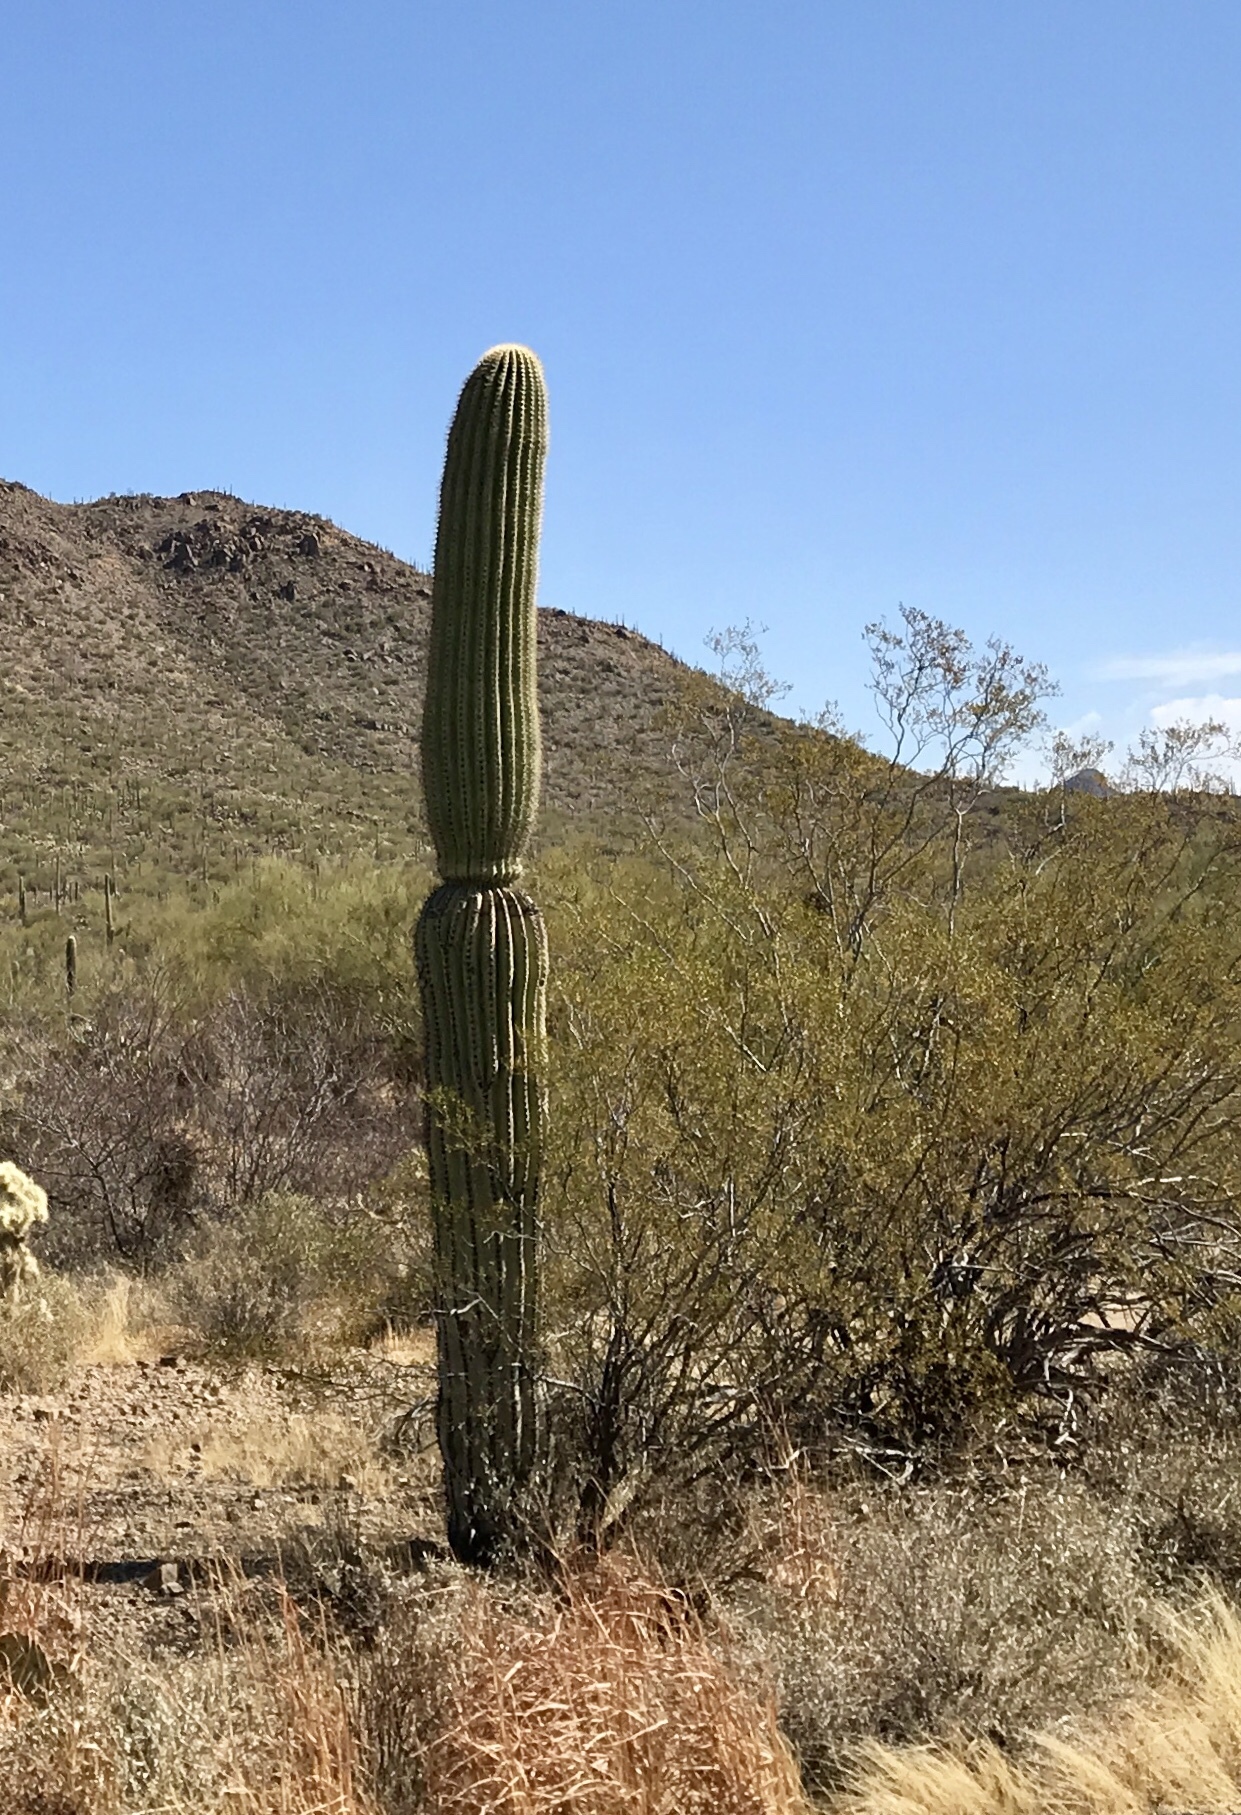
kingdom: Plantae
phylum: Tracheophyta
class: Magnoliopsida
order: Caryophyllales
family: Cactaceae
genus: Carnegiea
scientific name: Carnegiea gigantea
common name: Saguaro
